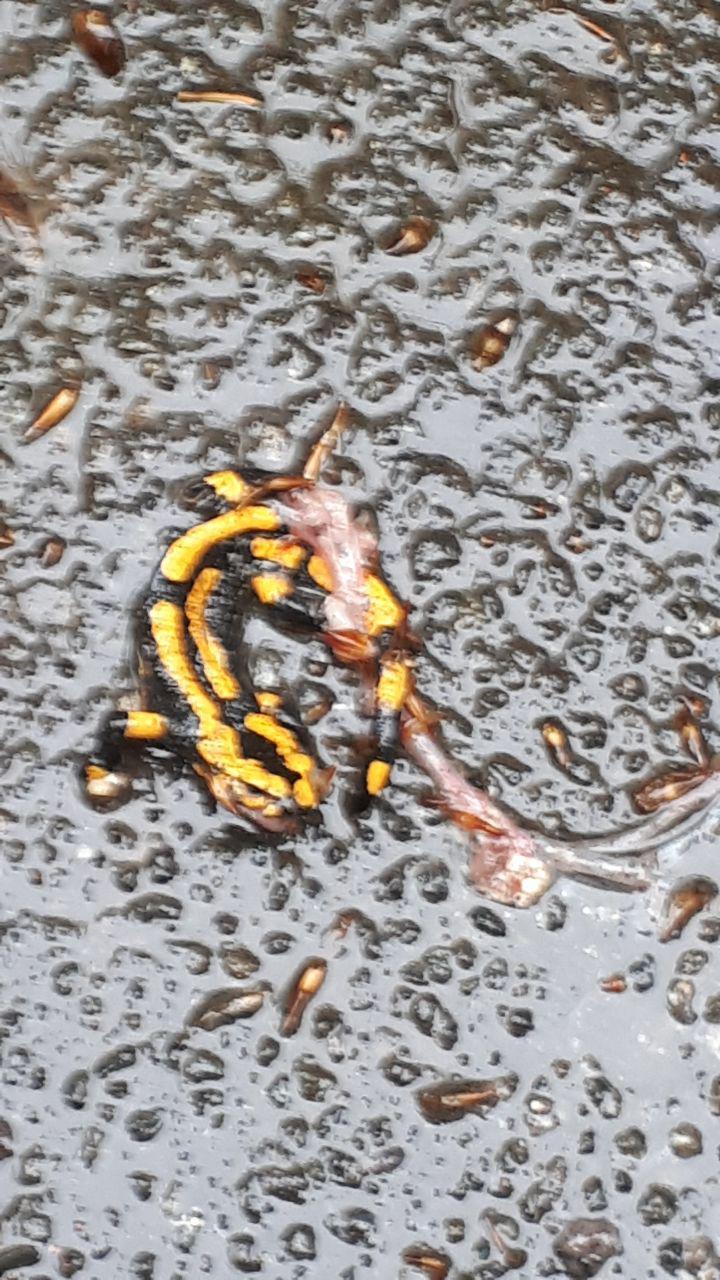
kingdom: Animalia
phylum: Chordata
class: Amphibia
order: Caudata
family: Salamandridae
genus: Salamandra
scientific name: Salamandra salamandra
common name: Fire salamander
